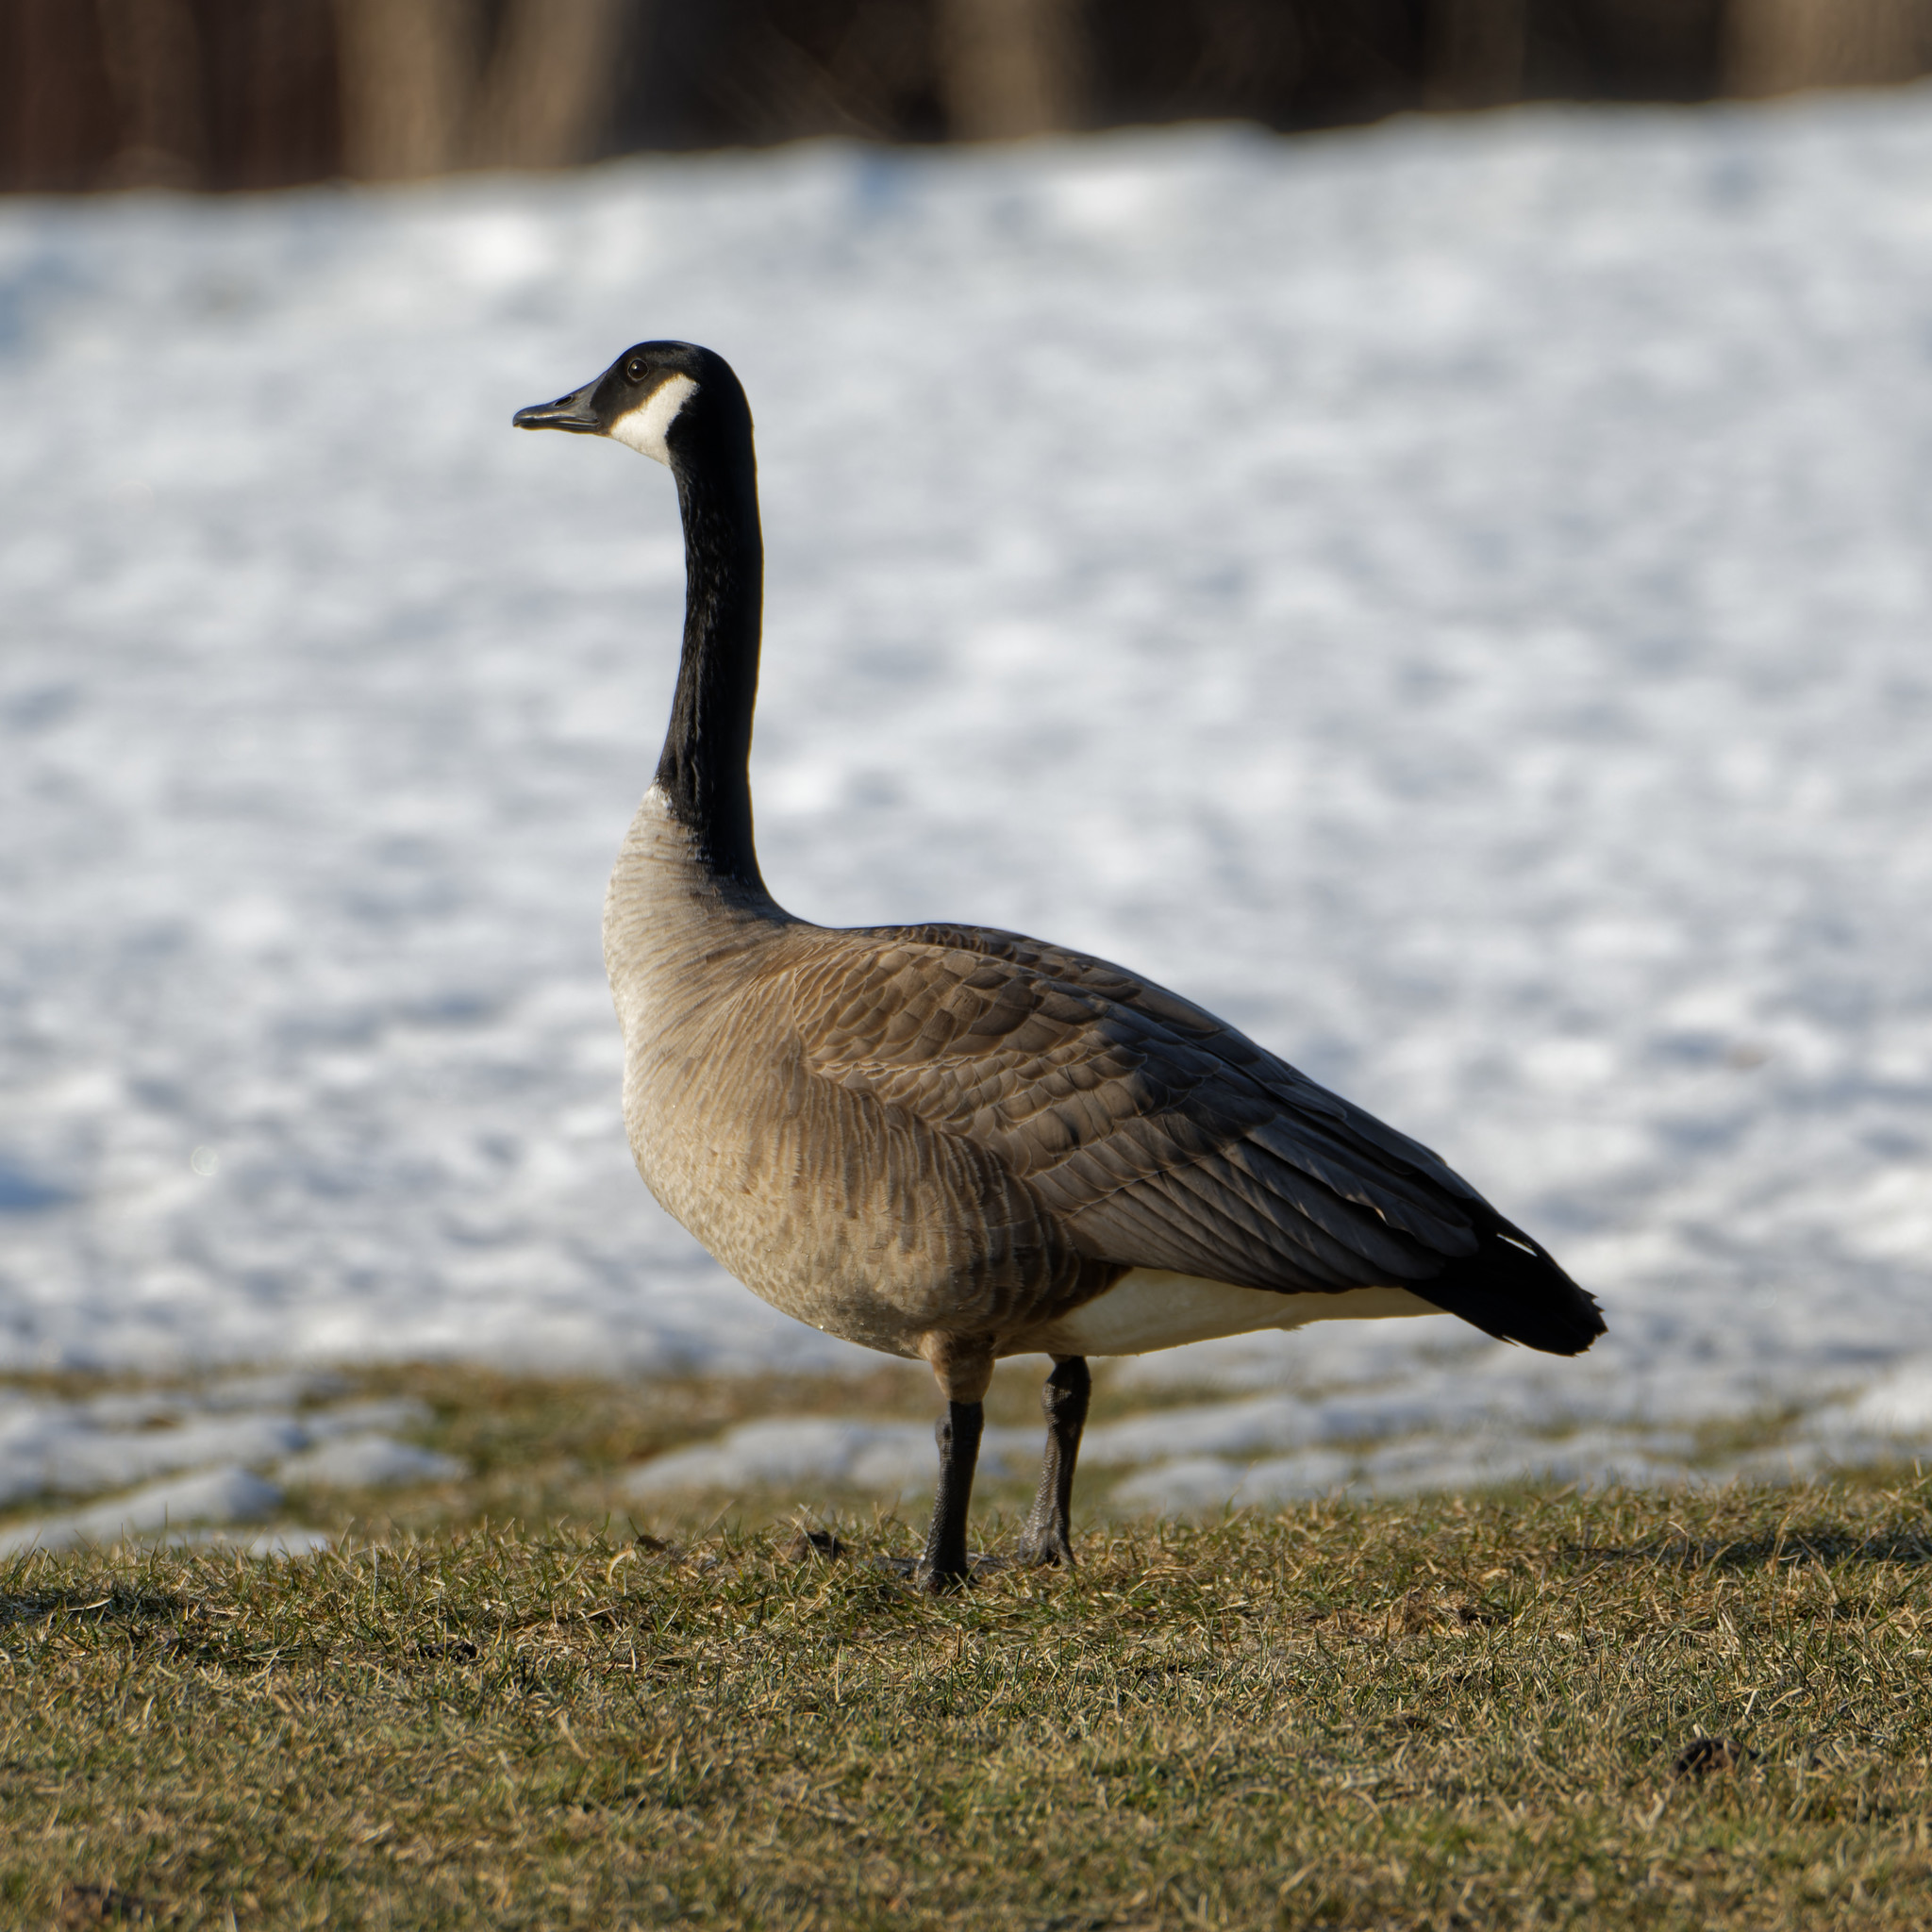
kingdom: Animalia
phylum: Chordata
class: Aves
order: Anseriformes
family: Anatidae
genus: Branta
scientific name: Branta canadensis
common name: Canada goose
